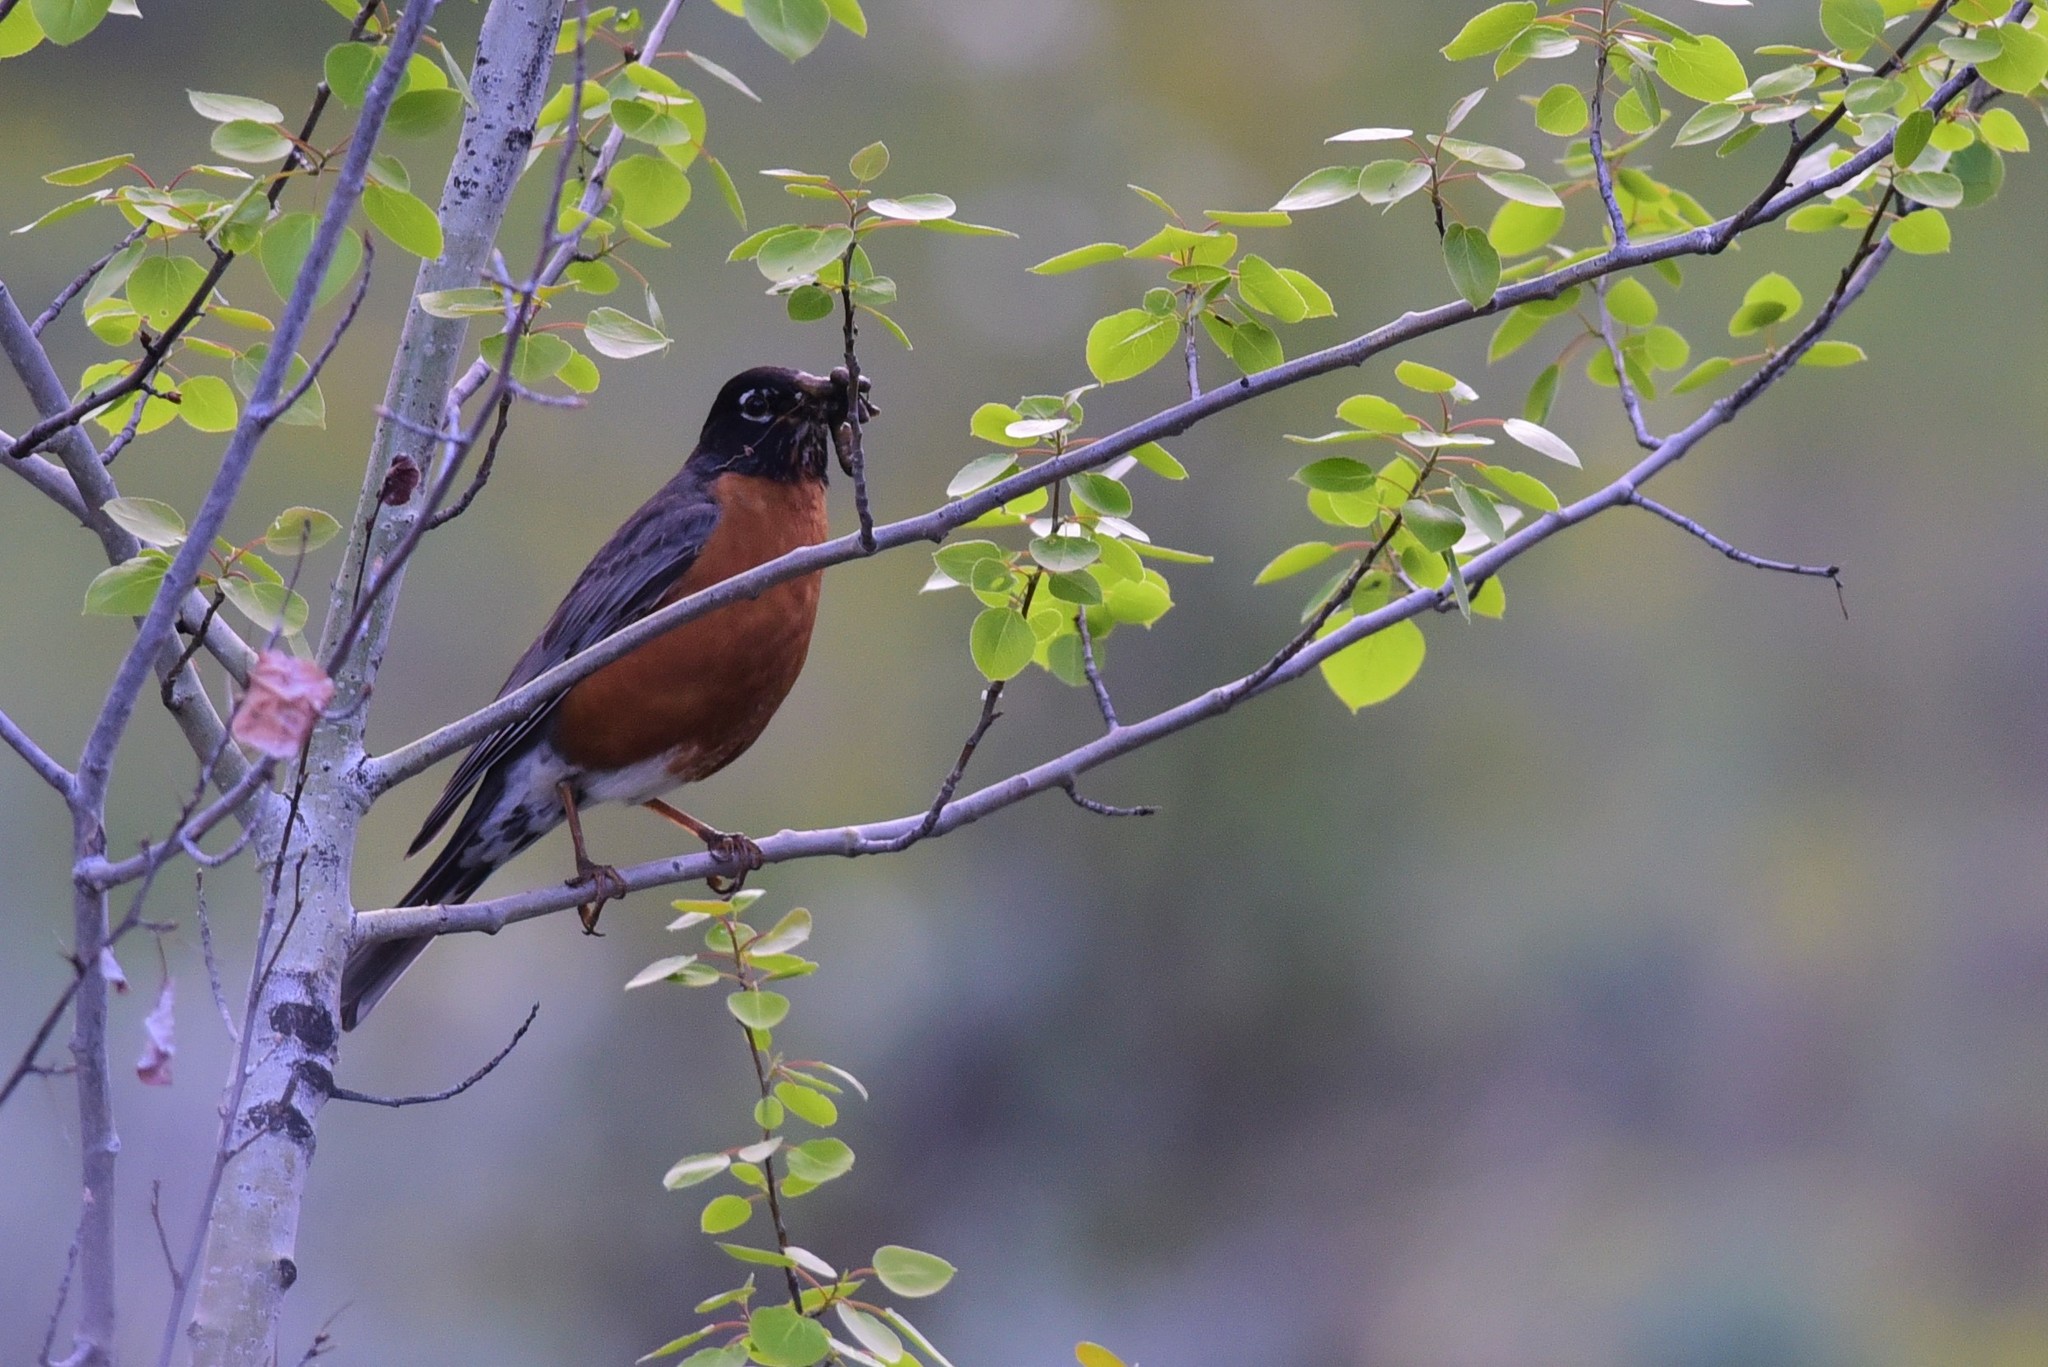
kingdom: Animalia
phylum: Chordata
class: Aves
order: Passeriformes
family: Turdidae
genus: Turdus
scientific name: Turdus migratorius
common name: American robin
